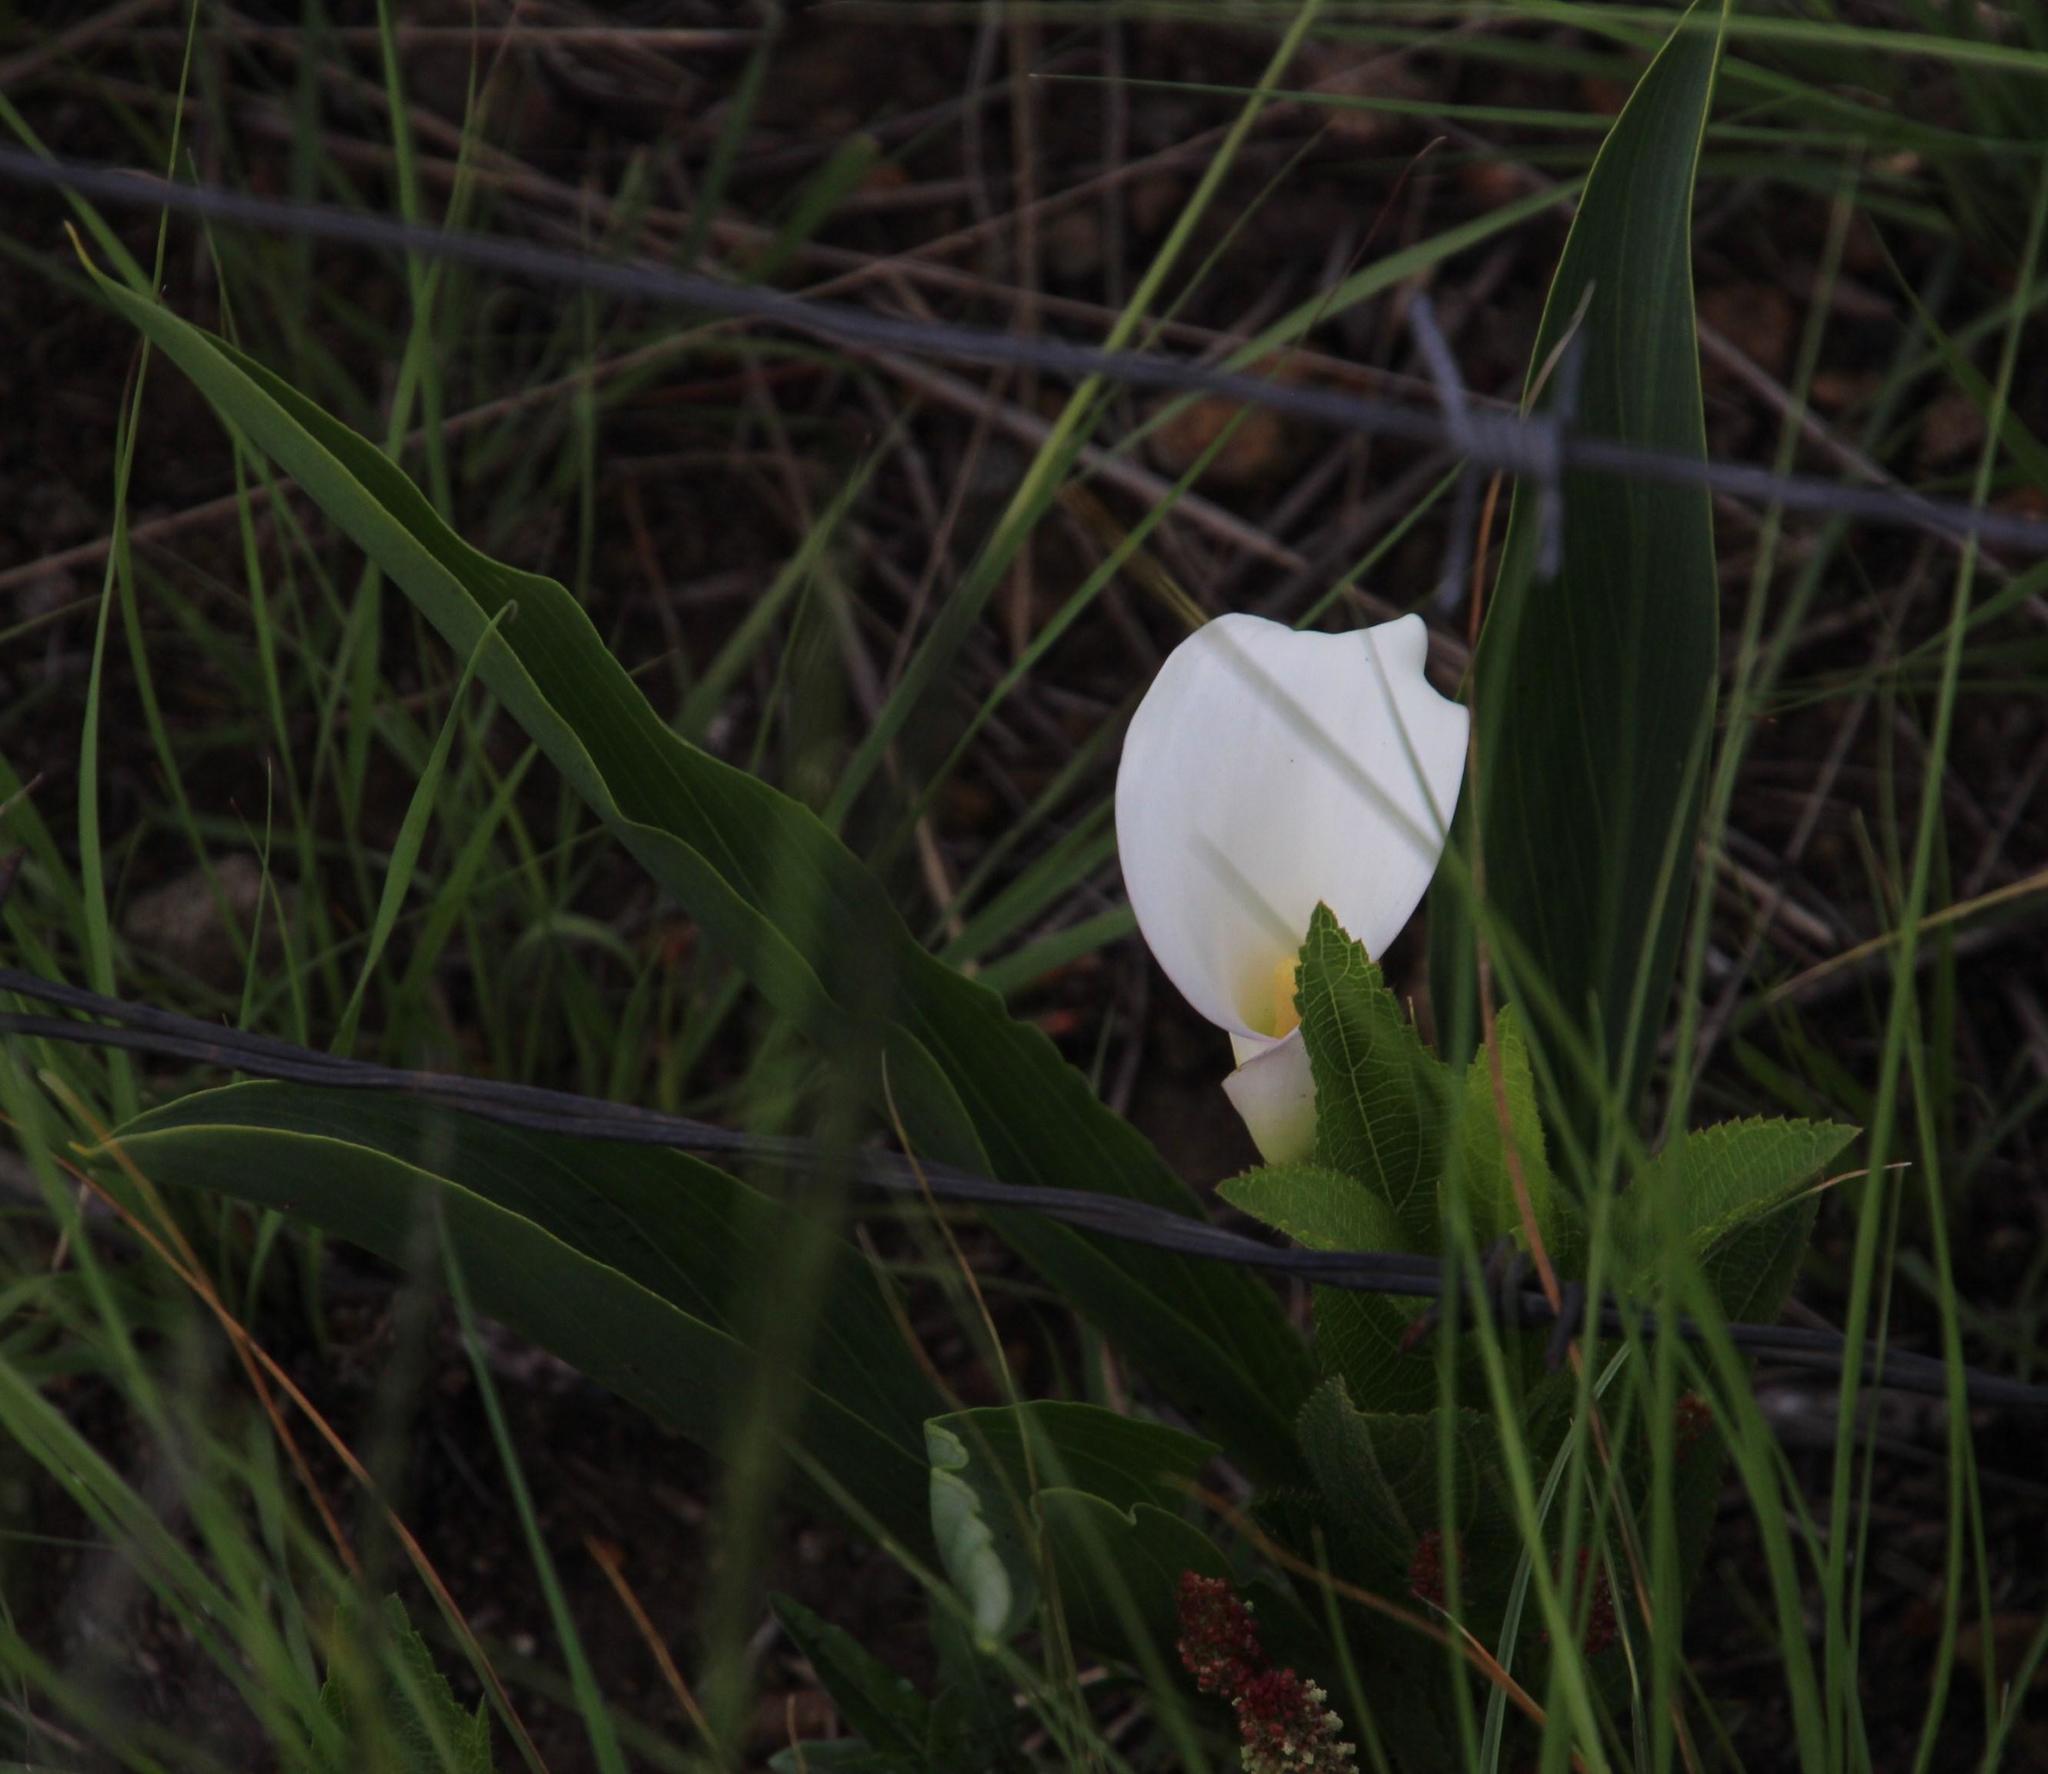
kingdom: Plantae
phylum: Tracheophyta
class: Liliopsida
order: Alismatales
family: Araceae
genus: Zantedeschia
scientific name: Zantedeschia aethiopica
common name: Altar-lily
